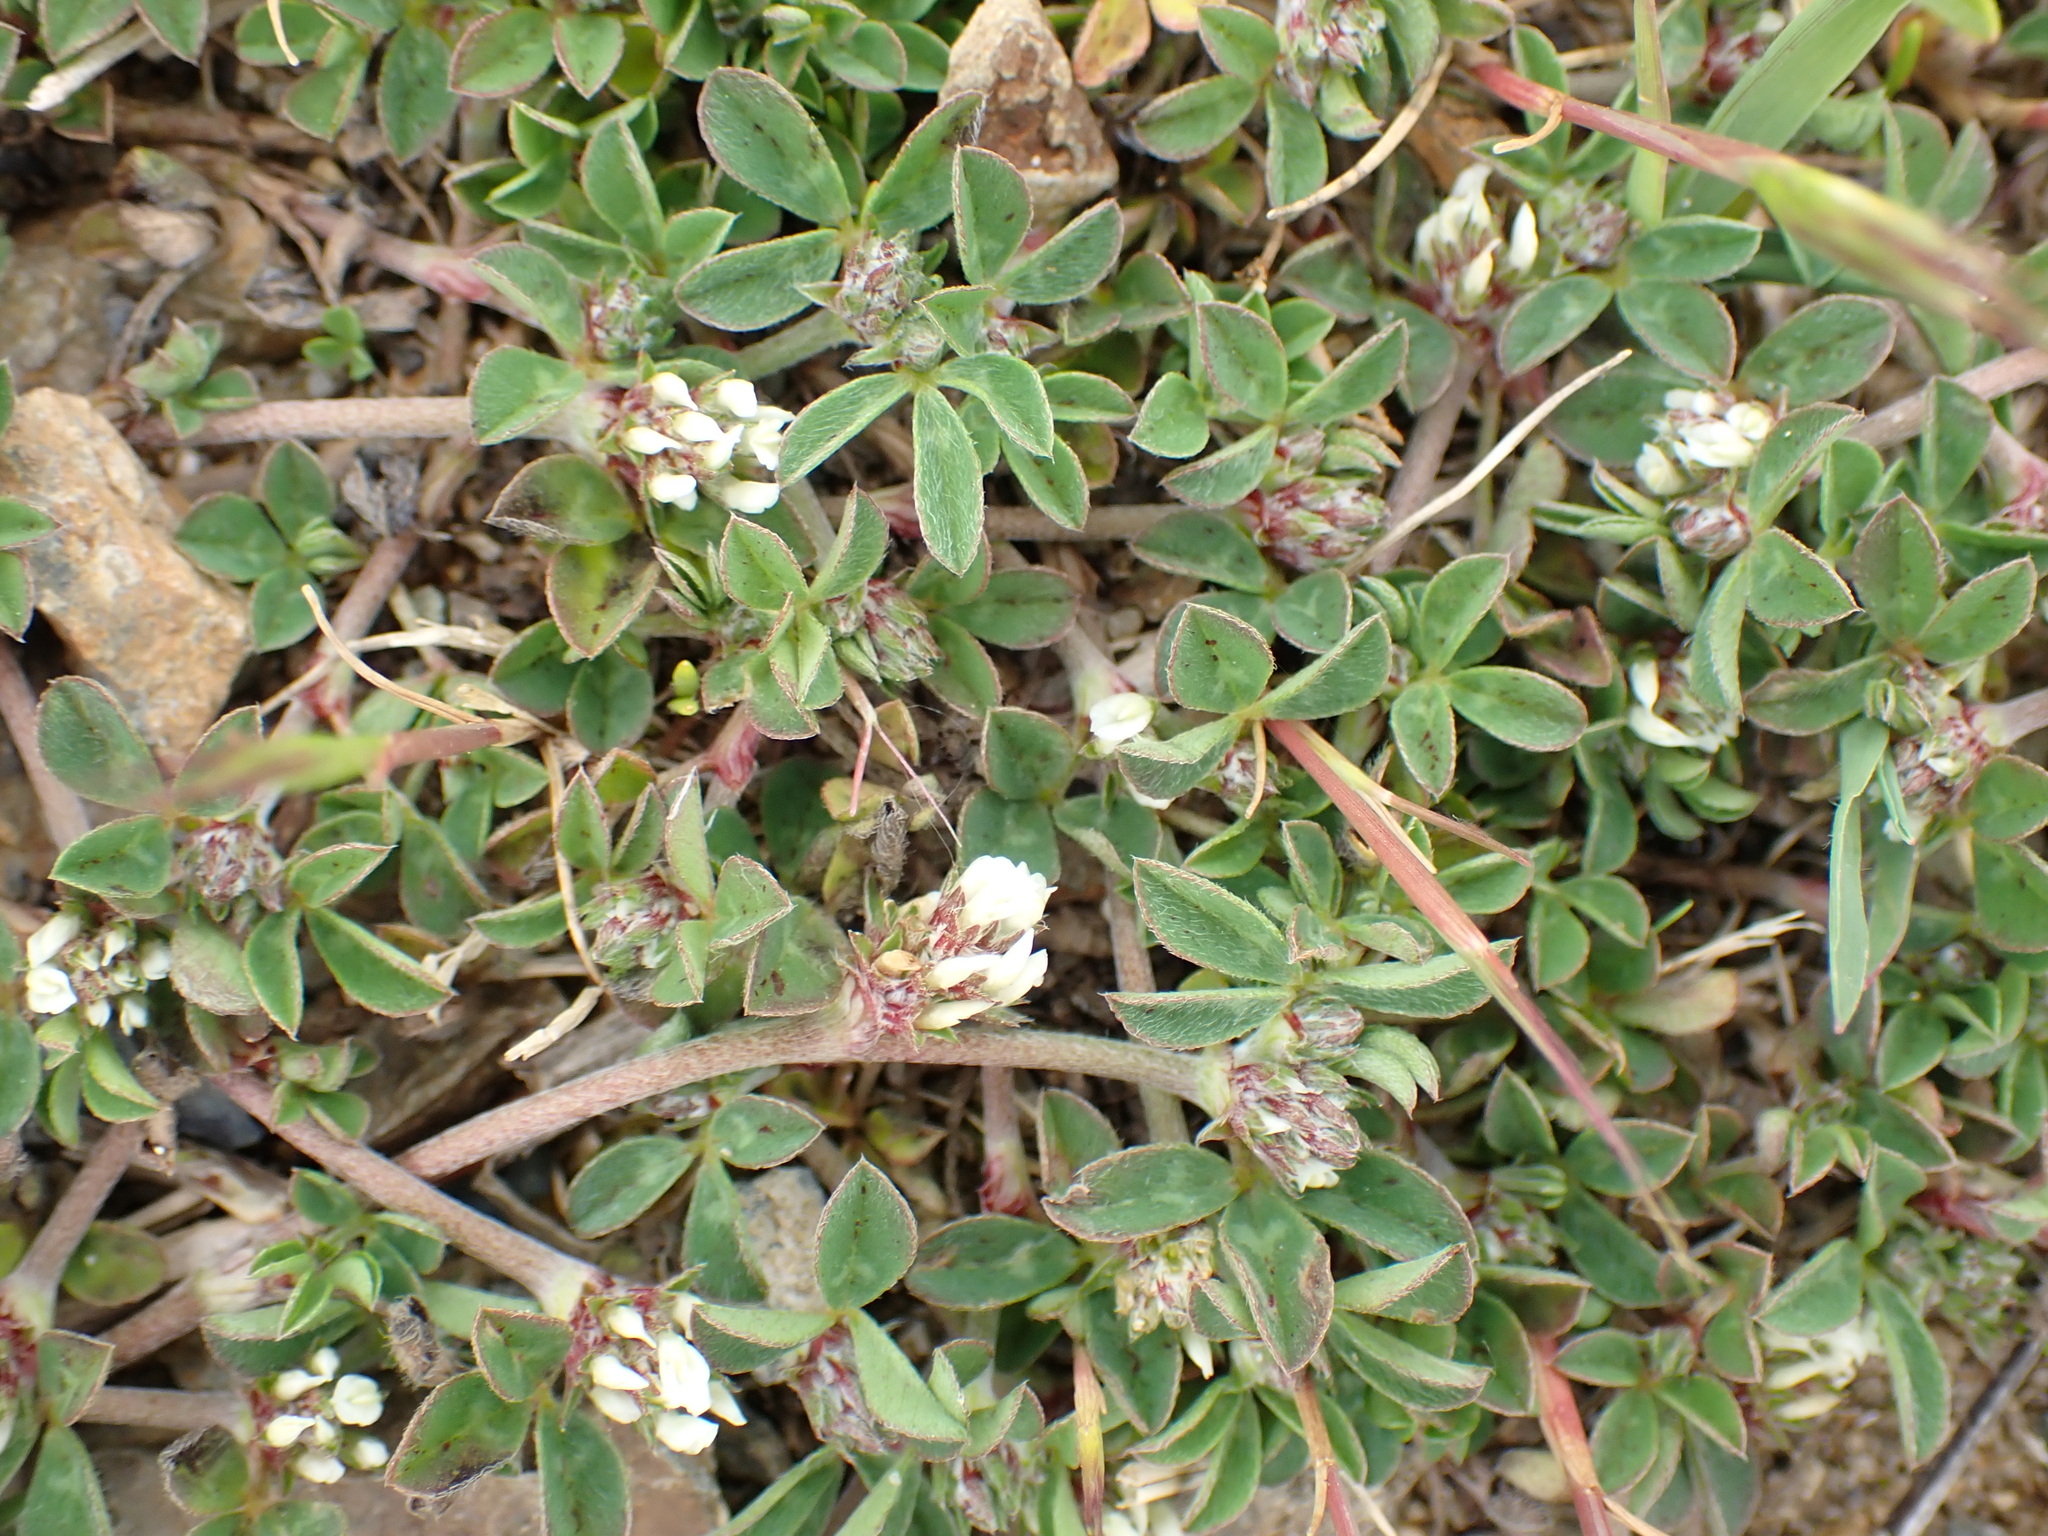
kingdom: Plantae
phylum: Tracheophyta
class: Magnoliopsida
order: Fabales
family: Fabaceae
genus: Trifolium
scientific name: Trifolium scabrum
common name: Rough clover
